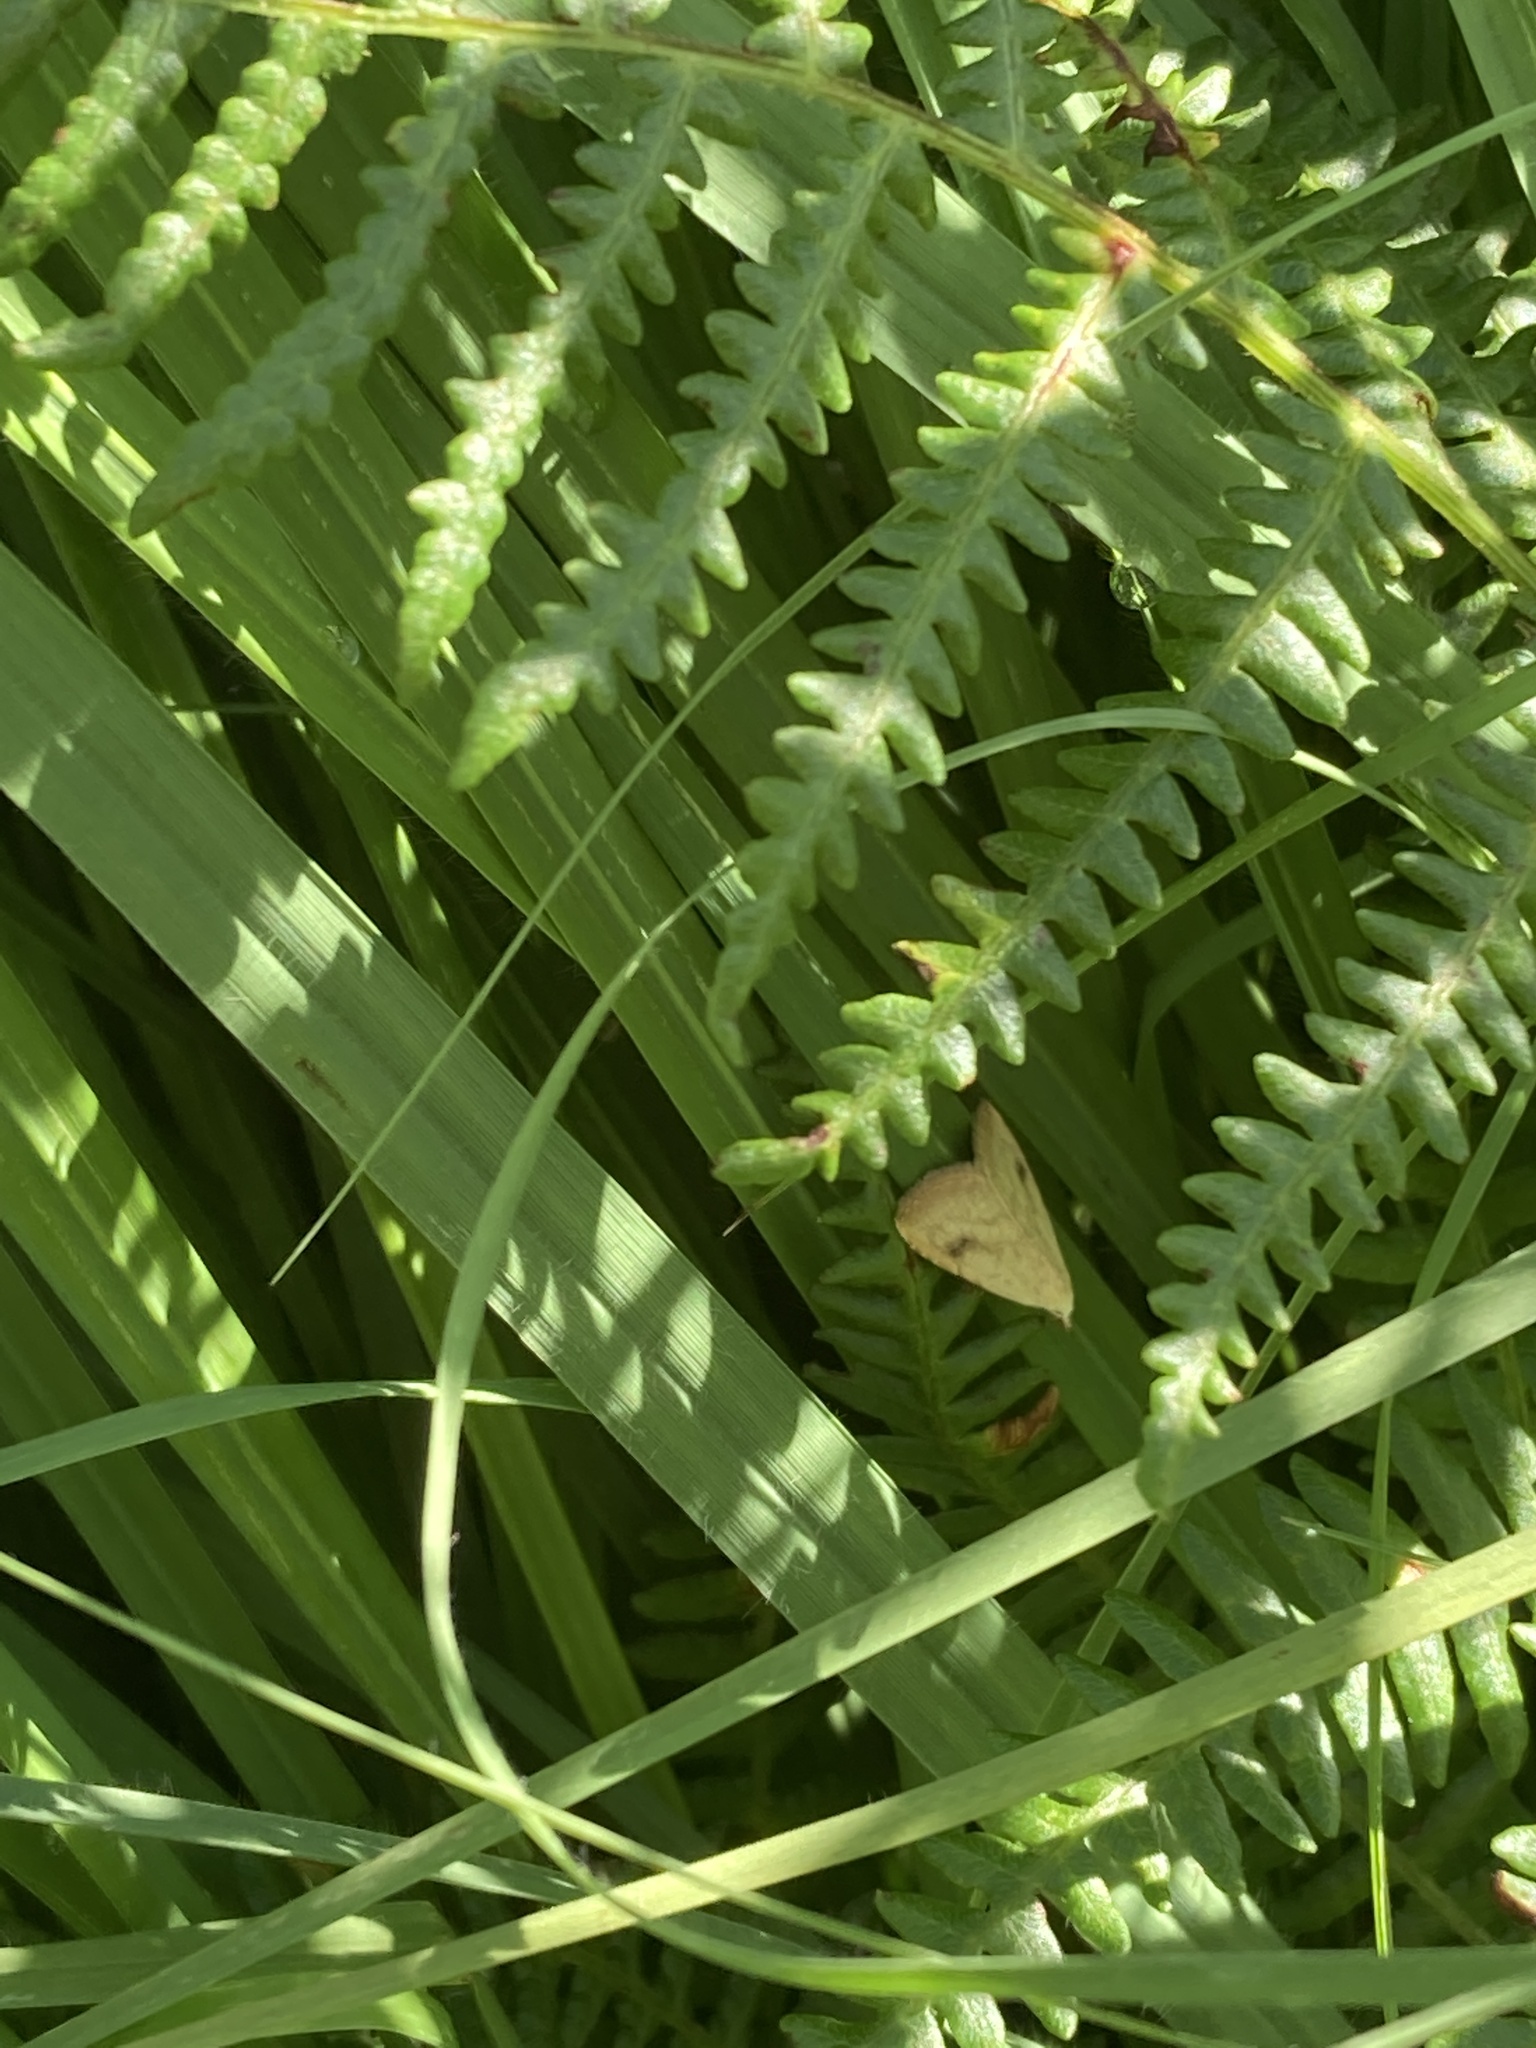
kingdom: Animalia
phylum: Arthropoda
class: Insecta
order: Lepidoptera
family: Erebidae
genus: Rivula
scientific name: Rivula sericealis
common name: Straw dot
